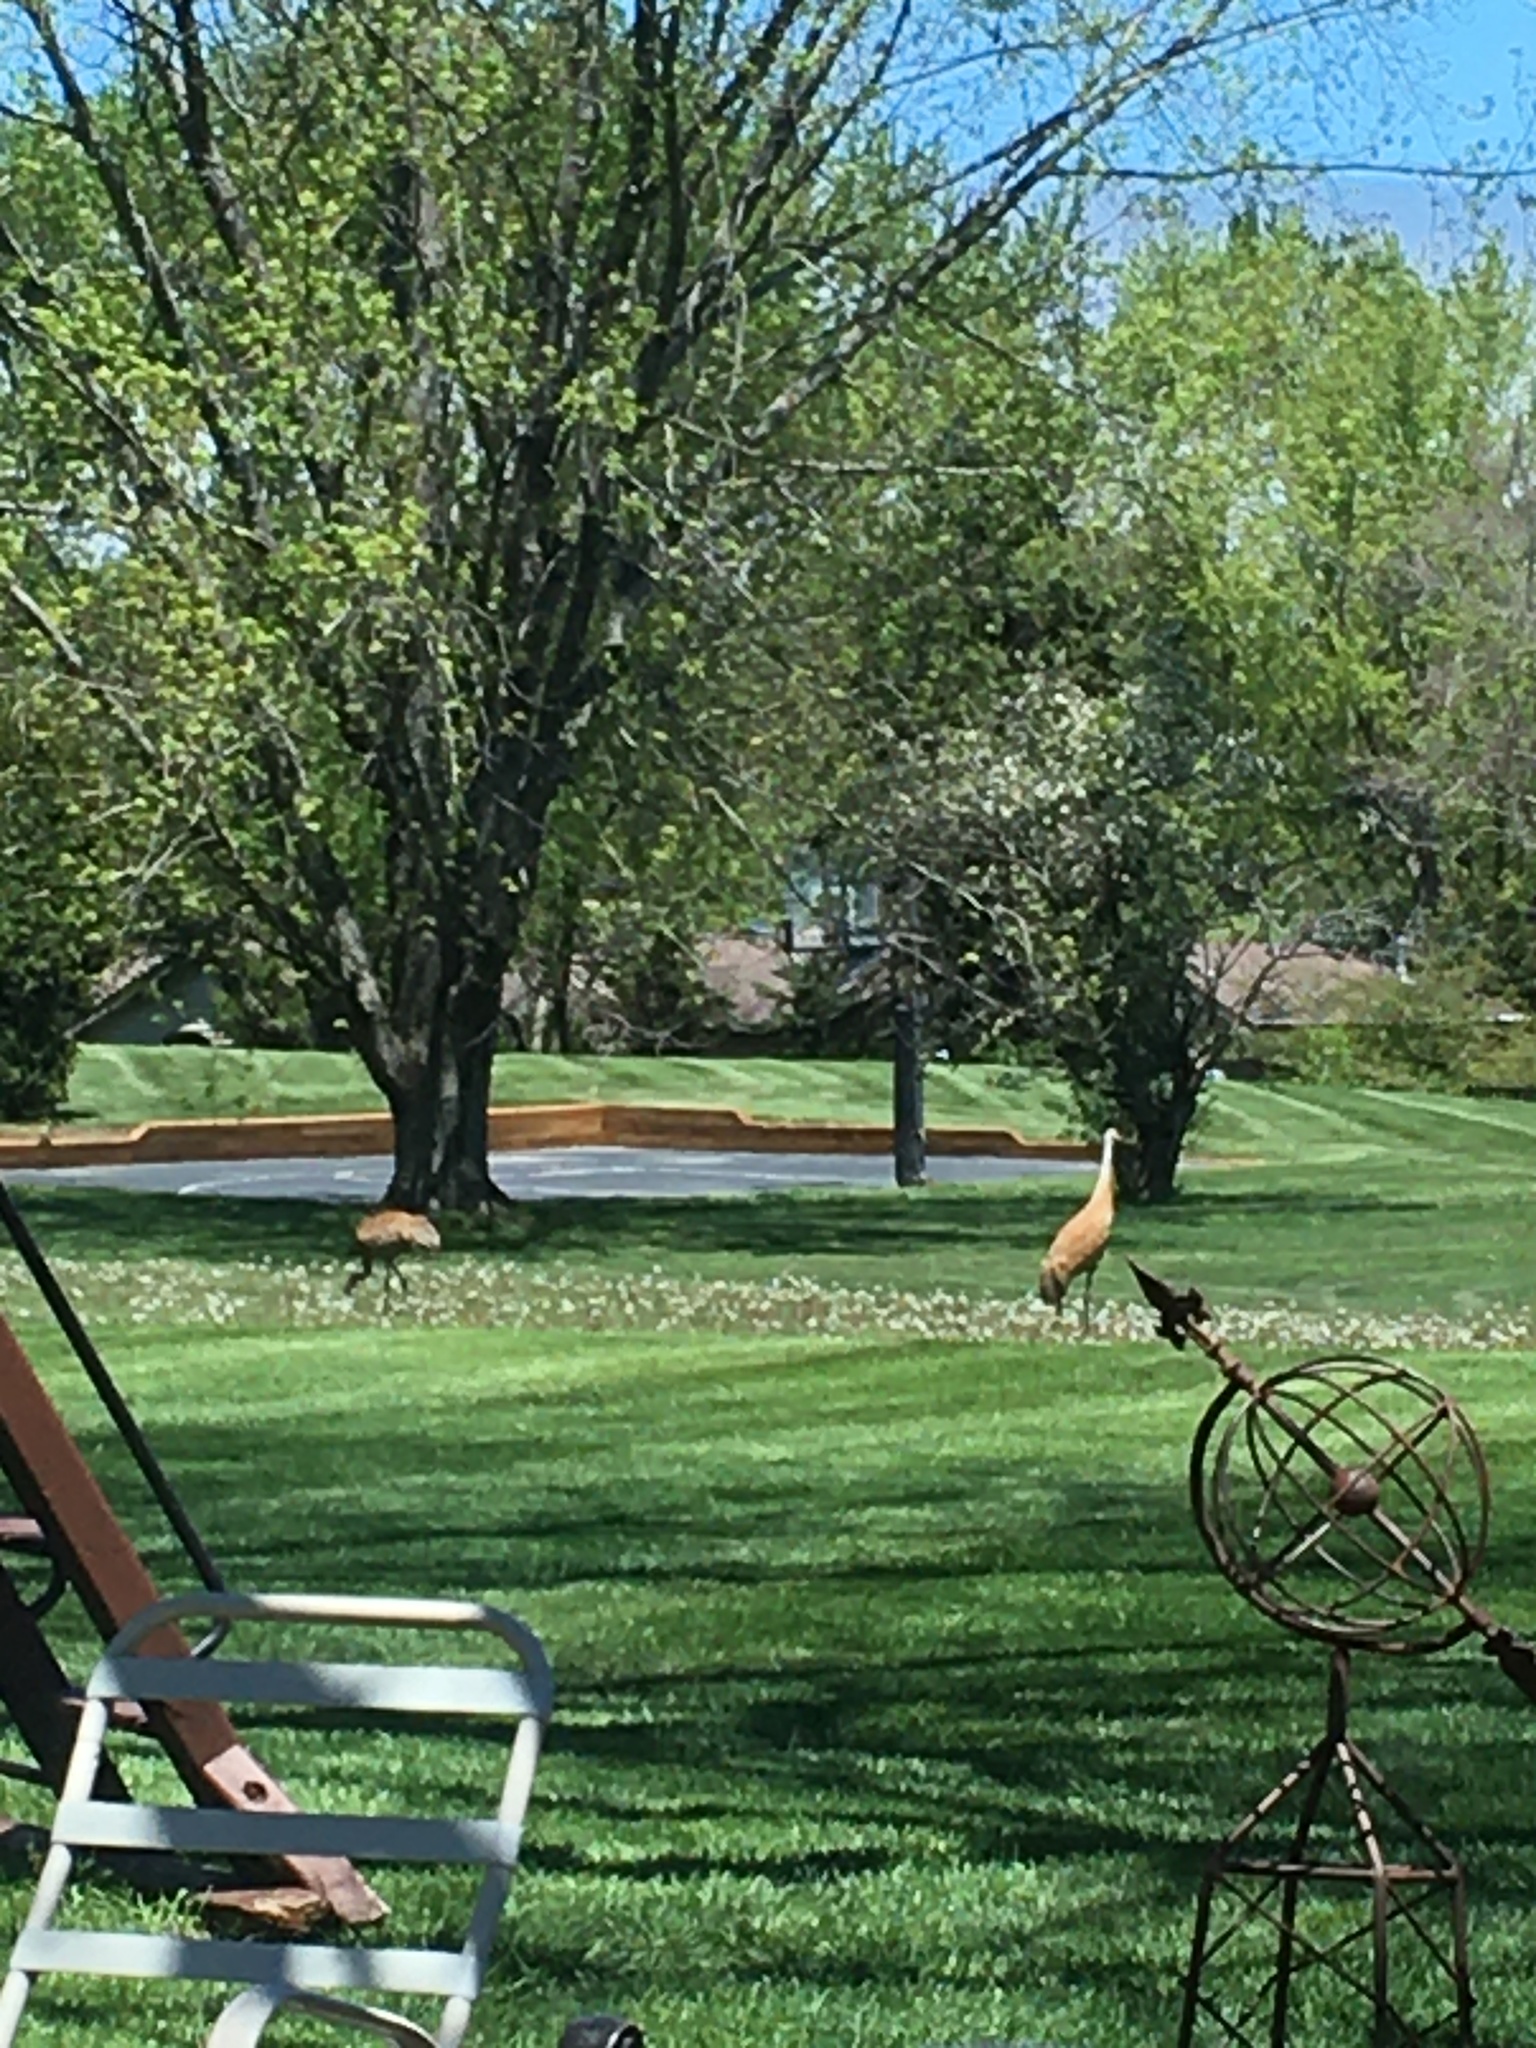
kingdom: Animalia
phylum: Chordata
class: Aves
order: Gruiformes
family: Gruidae
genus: Grus
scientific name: Grus canadensis
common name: Sandhill crane
